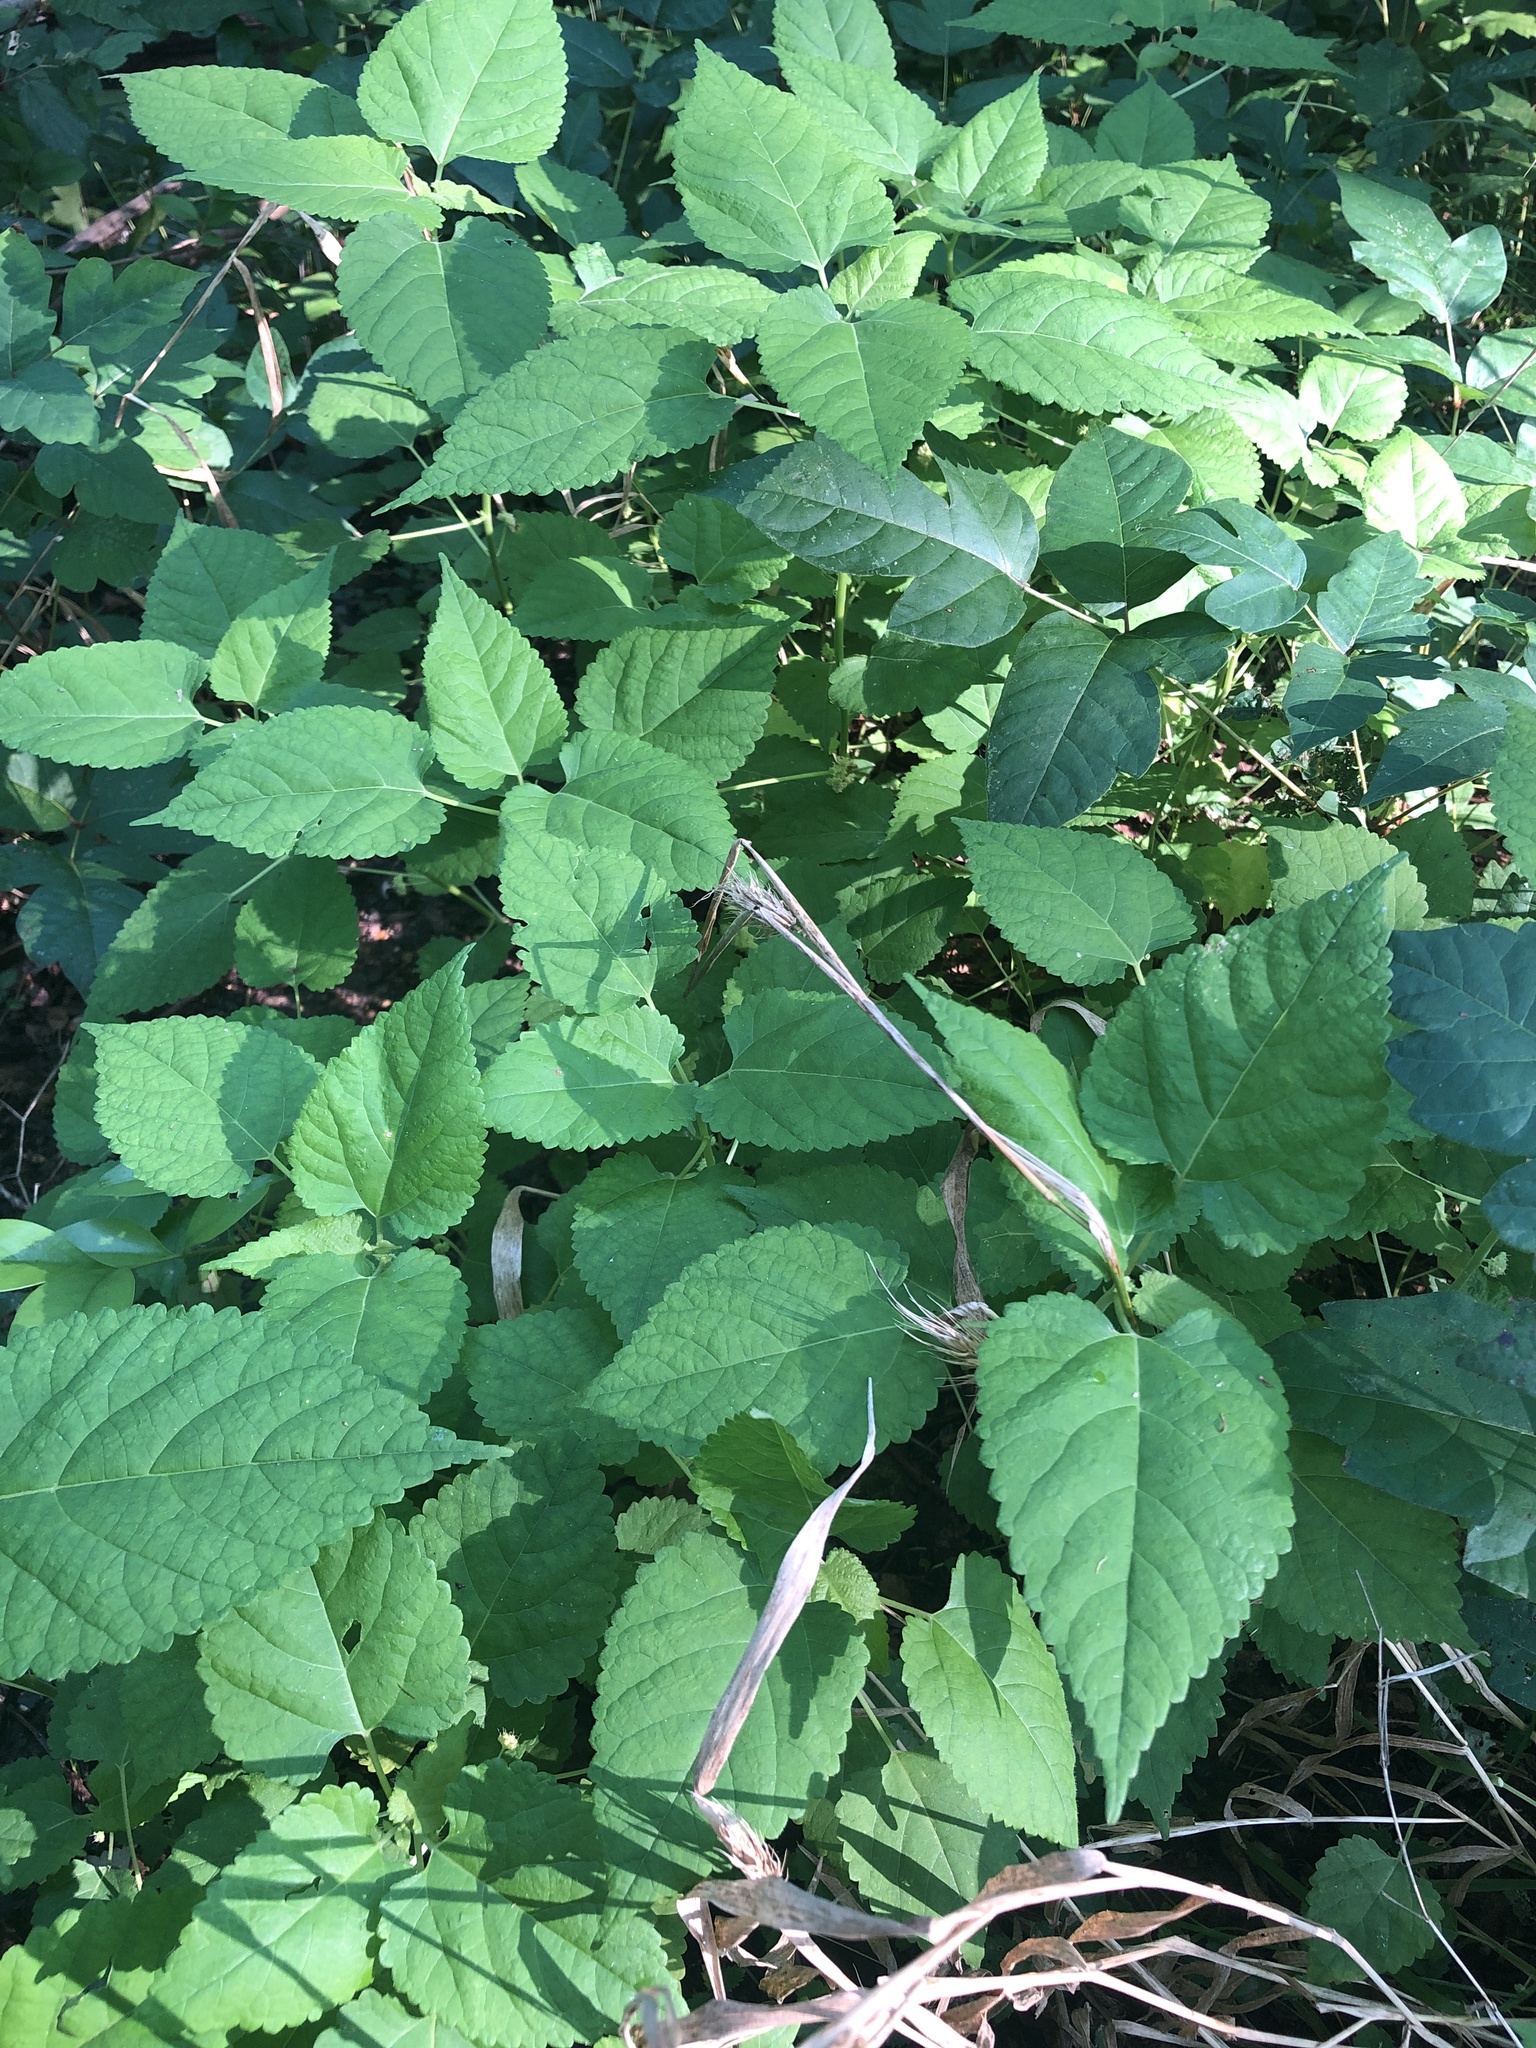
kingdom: Plantae
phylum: Tracheophyta
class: Magnoliopsida
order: Rosales
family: Moraceae
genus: Fatoua
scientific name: Fatoua villosa
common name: Hairy crabweed
